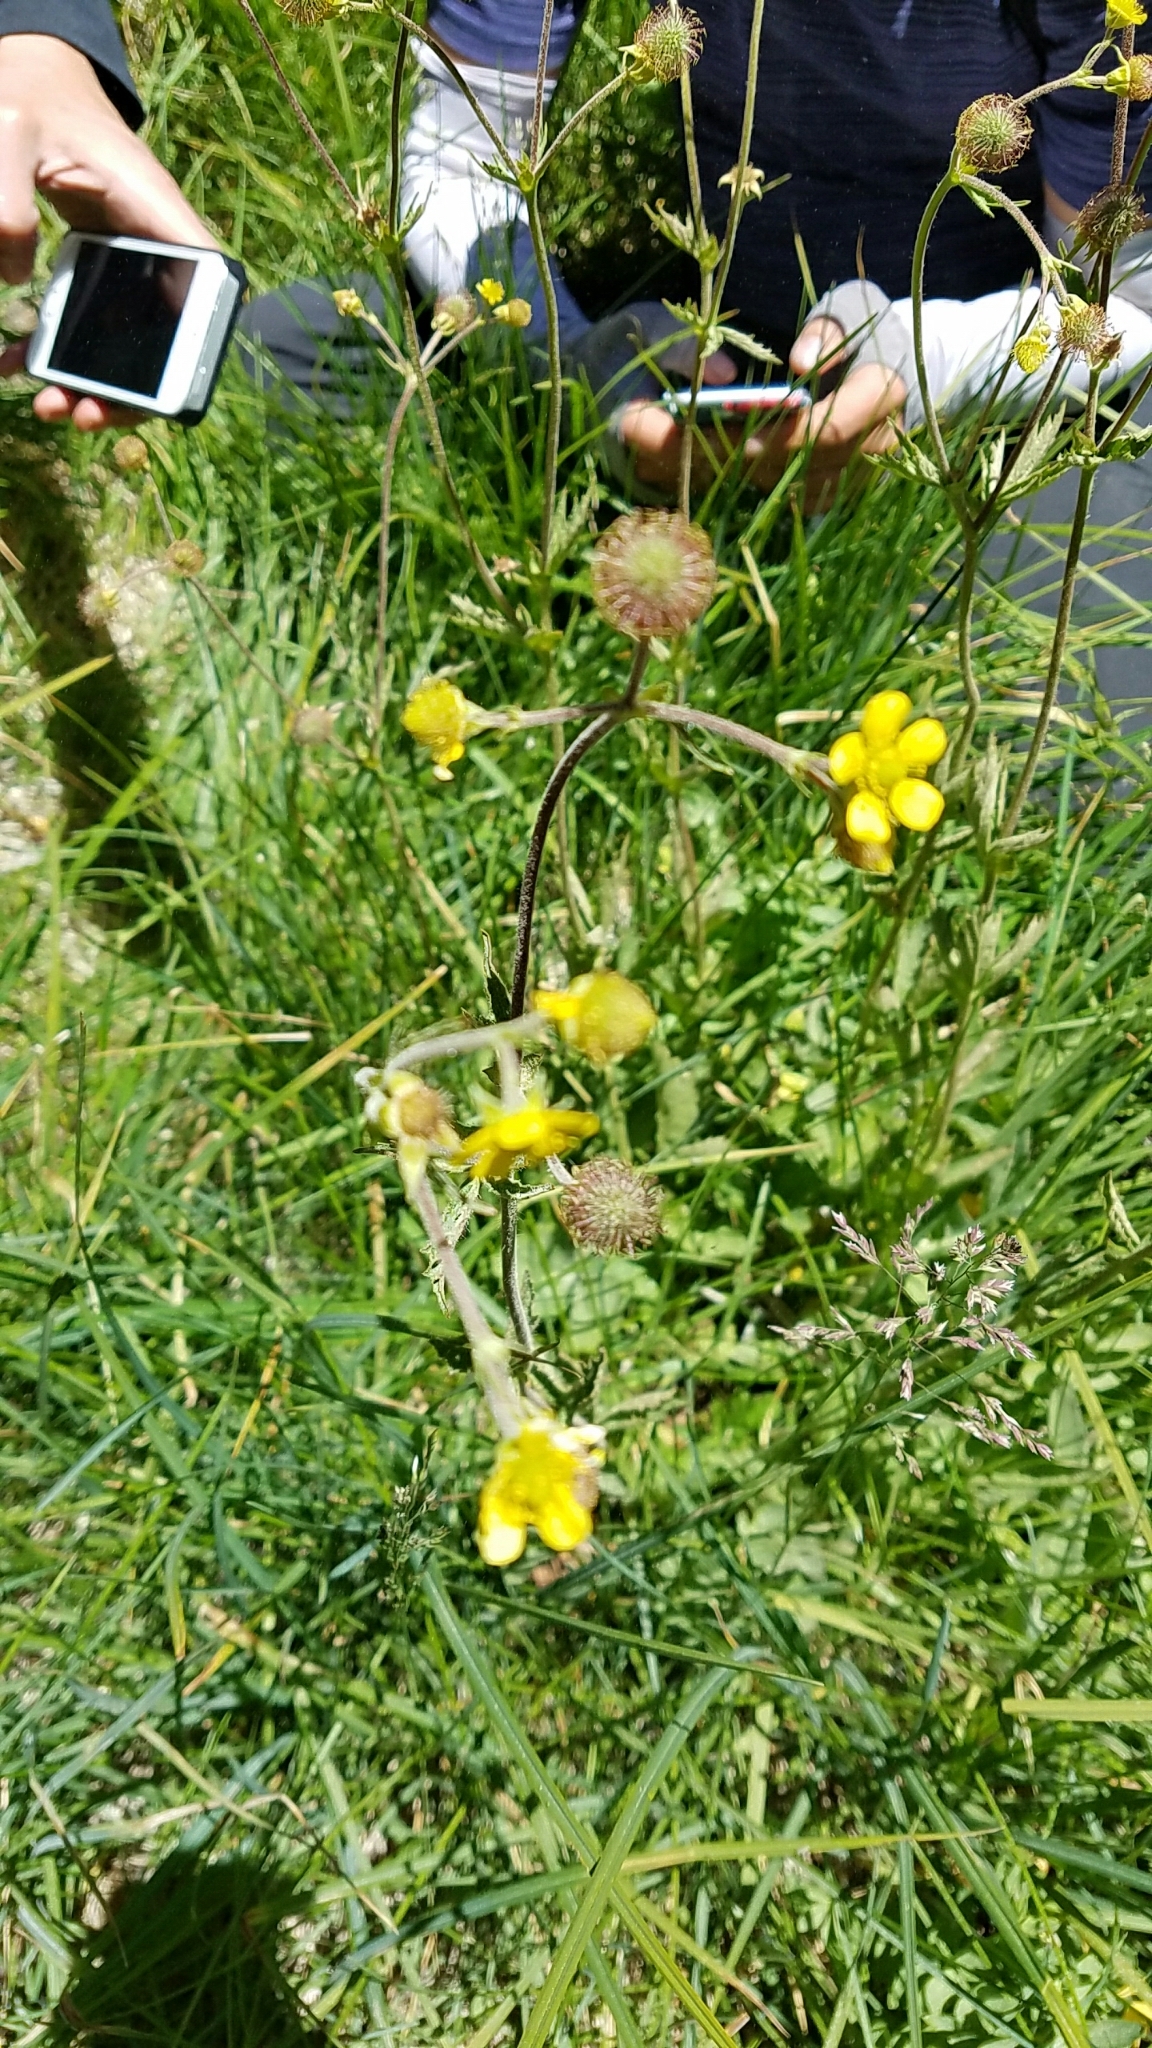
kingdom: Plantae
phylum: Tracheophyta
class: Magnoliopsida
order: Rosales
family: Rosaceae
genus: Geum
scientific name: Geum macrophyllum
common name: Large-leaved avens
